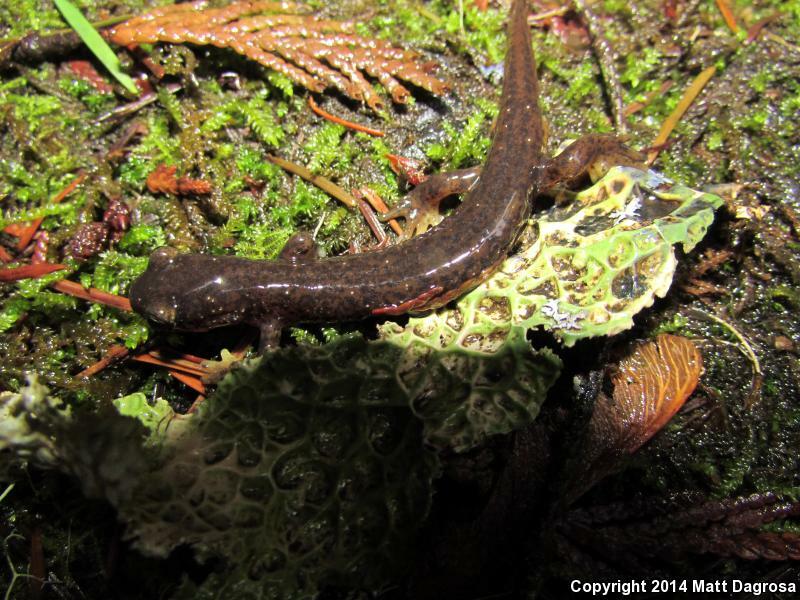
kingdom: Animalia
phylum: Chordata
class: Amphibia
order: Caudata
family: Rhyacotritonidae
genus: Rhyacotriton
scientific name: Rhyacotriton cascadae
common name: Cascade torrent salamander
